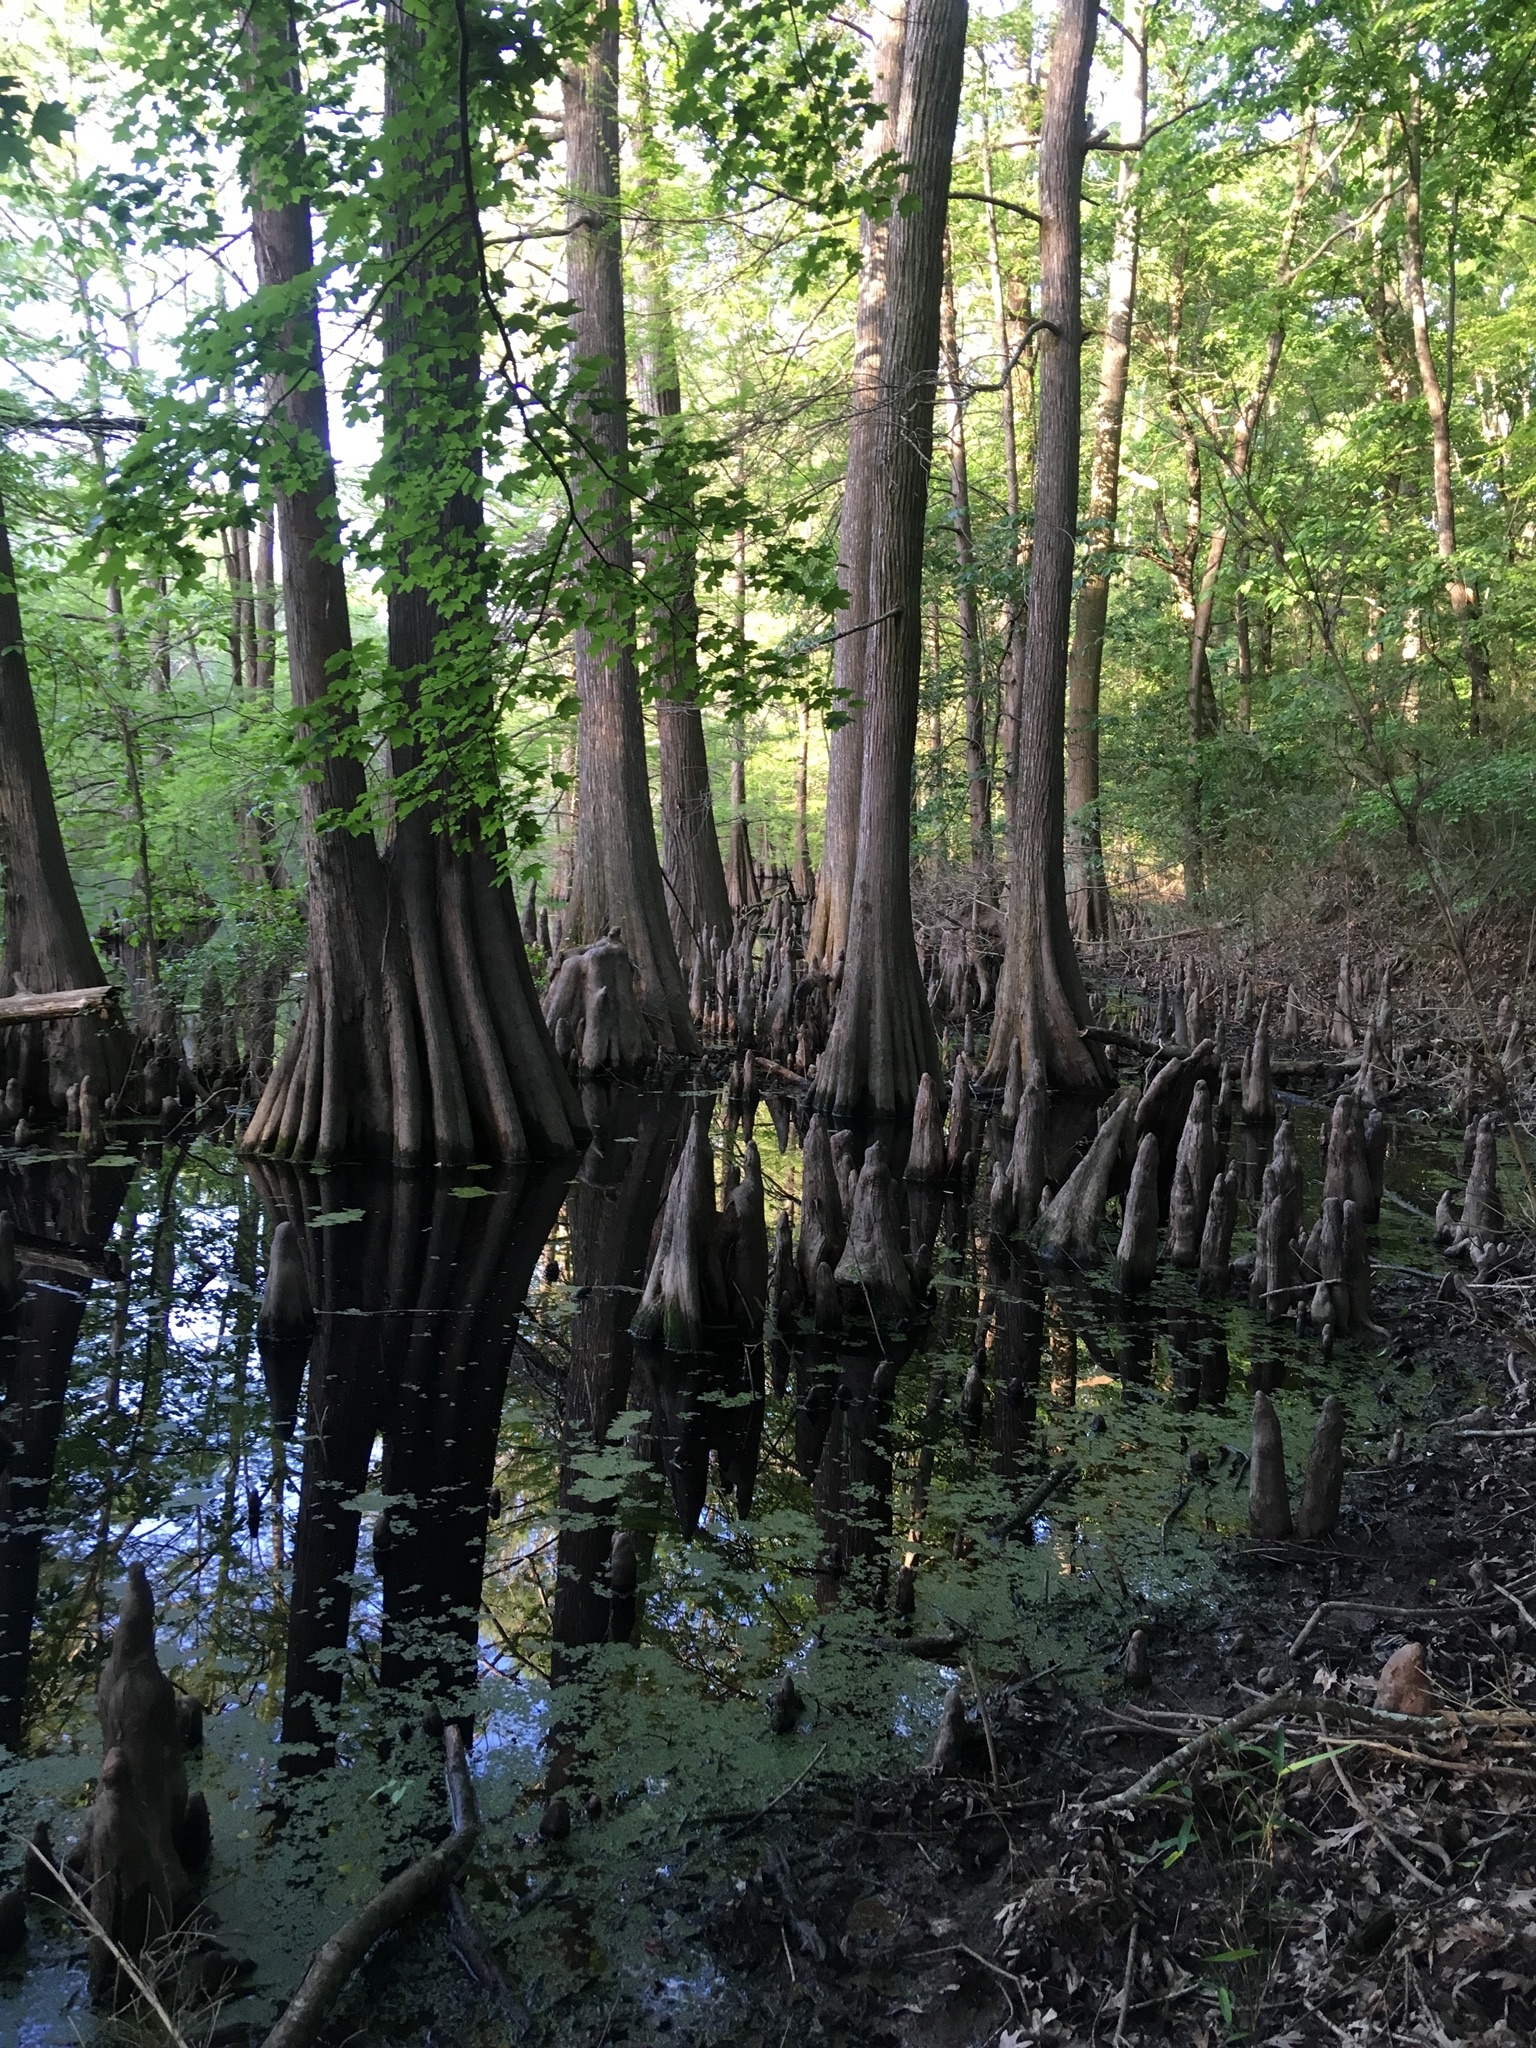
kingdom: Plantae
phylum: Tracheophyta
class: Pinopsida
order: Pinales
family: Cupressaceae
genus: Taxodium
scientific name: Taxodium distichum
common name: Bald cypress
